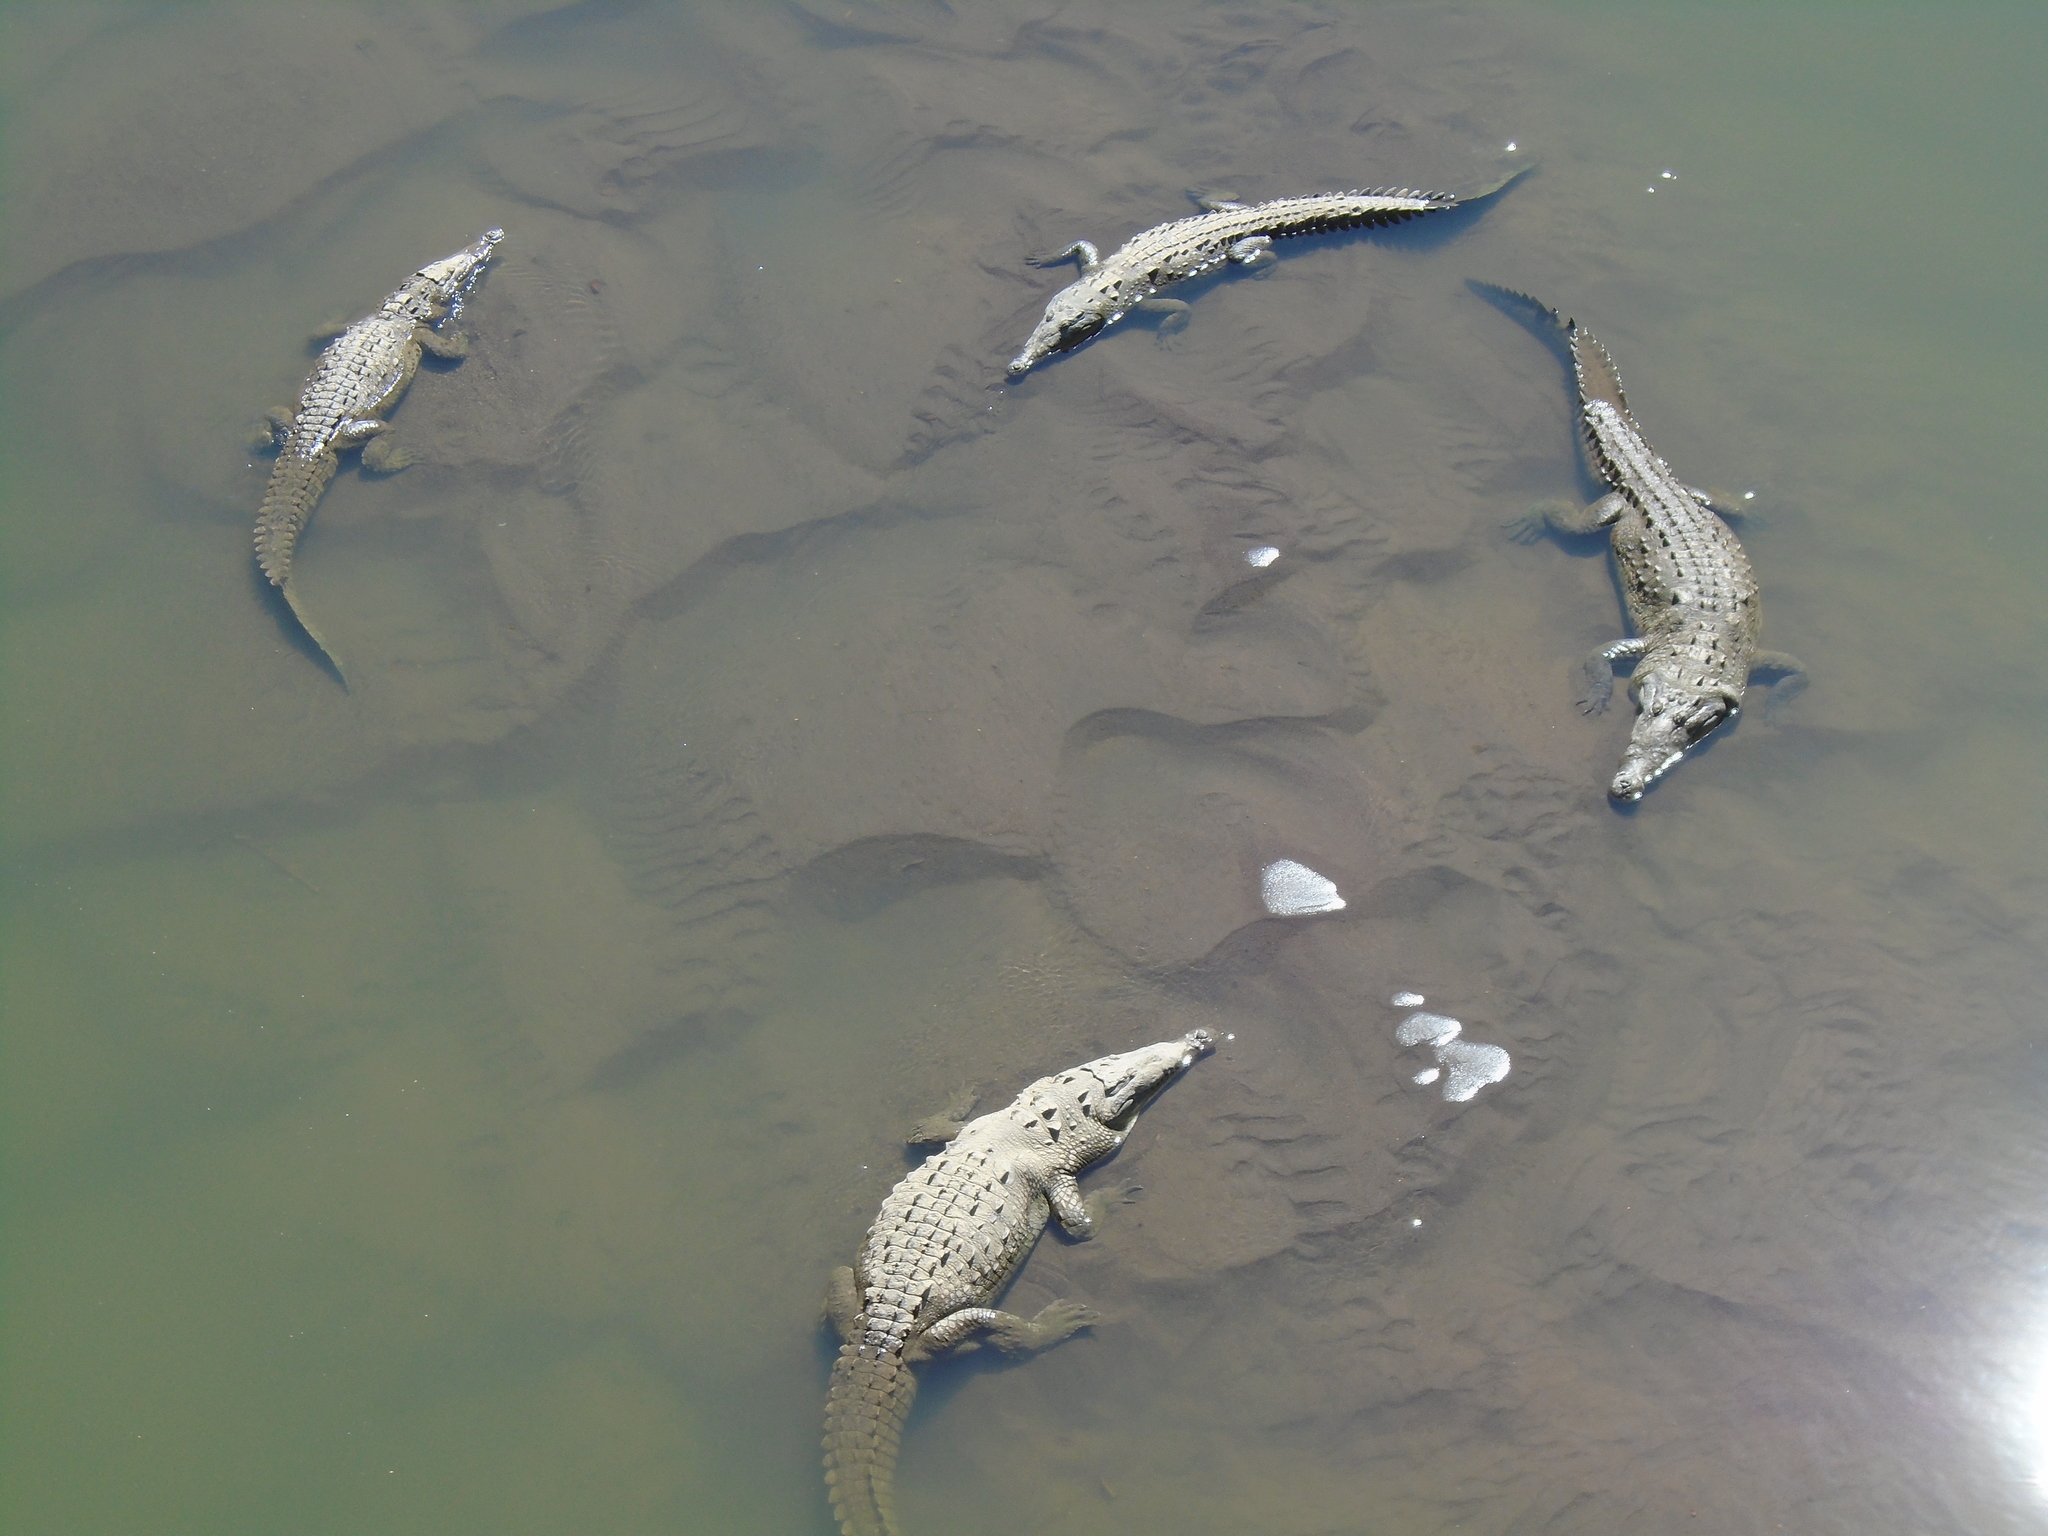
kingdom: Animalia
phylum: Chordata
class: Crocodylia
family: Crocodylidae
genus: Crocodylus
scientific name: Crocodylus acutus
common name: American crocodile
